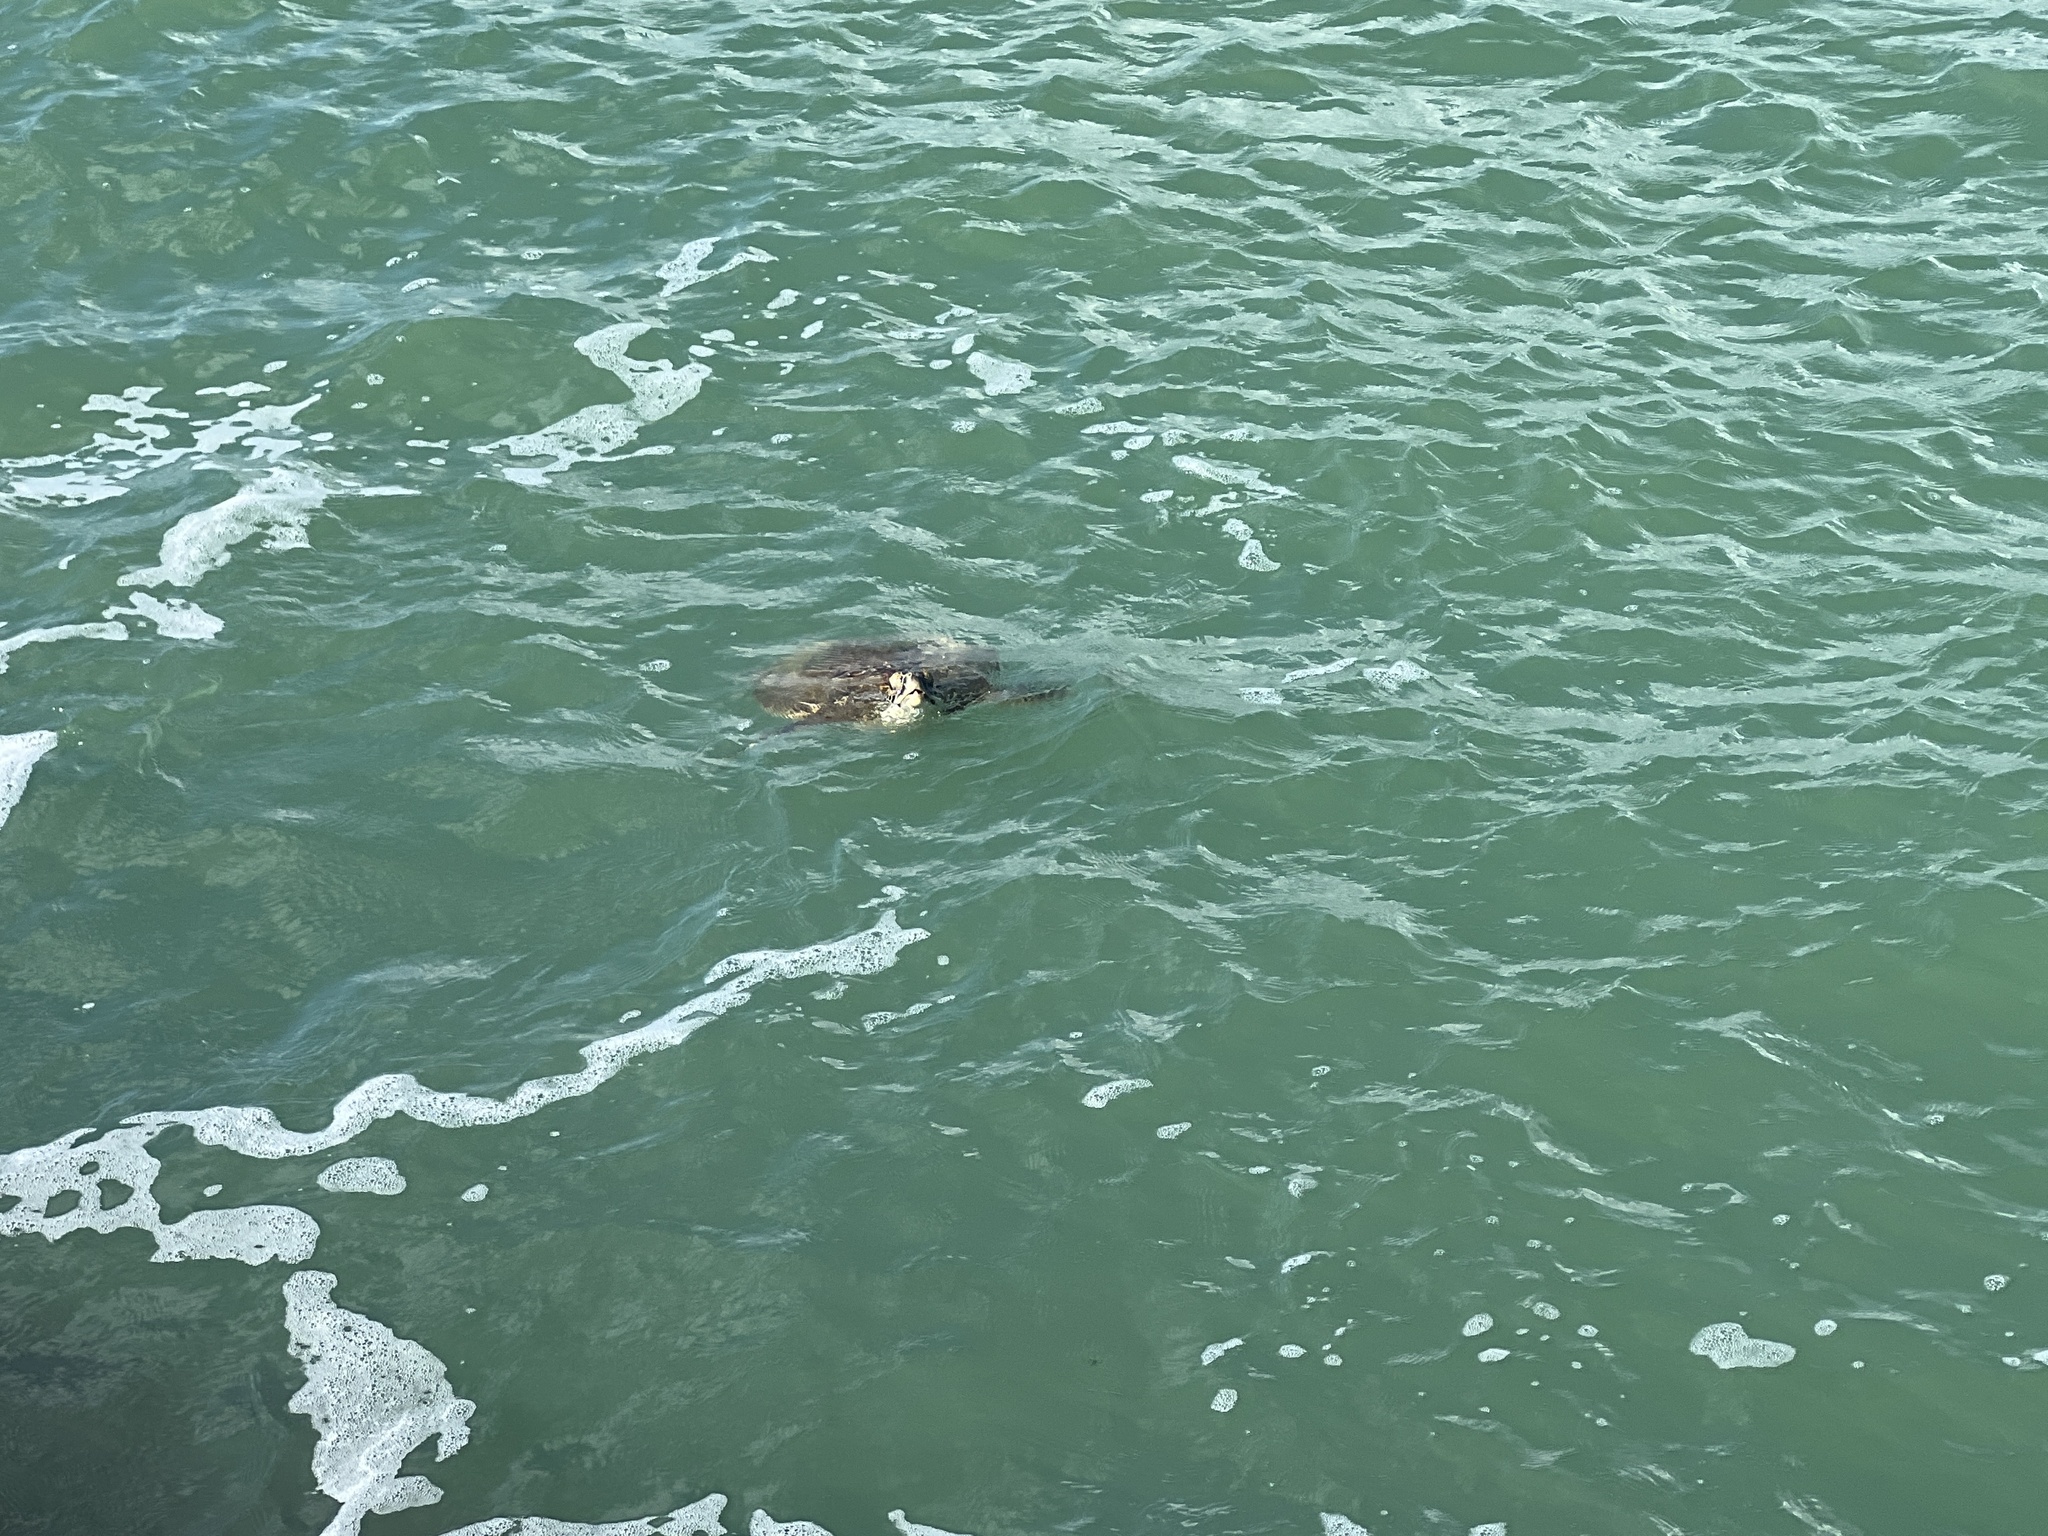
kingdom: Animalia
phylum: Chordata
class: Testudines
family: Cheloniidae
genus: Chelonia
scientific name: Chelonia mydas
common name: Green turtle
